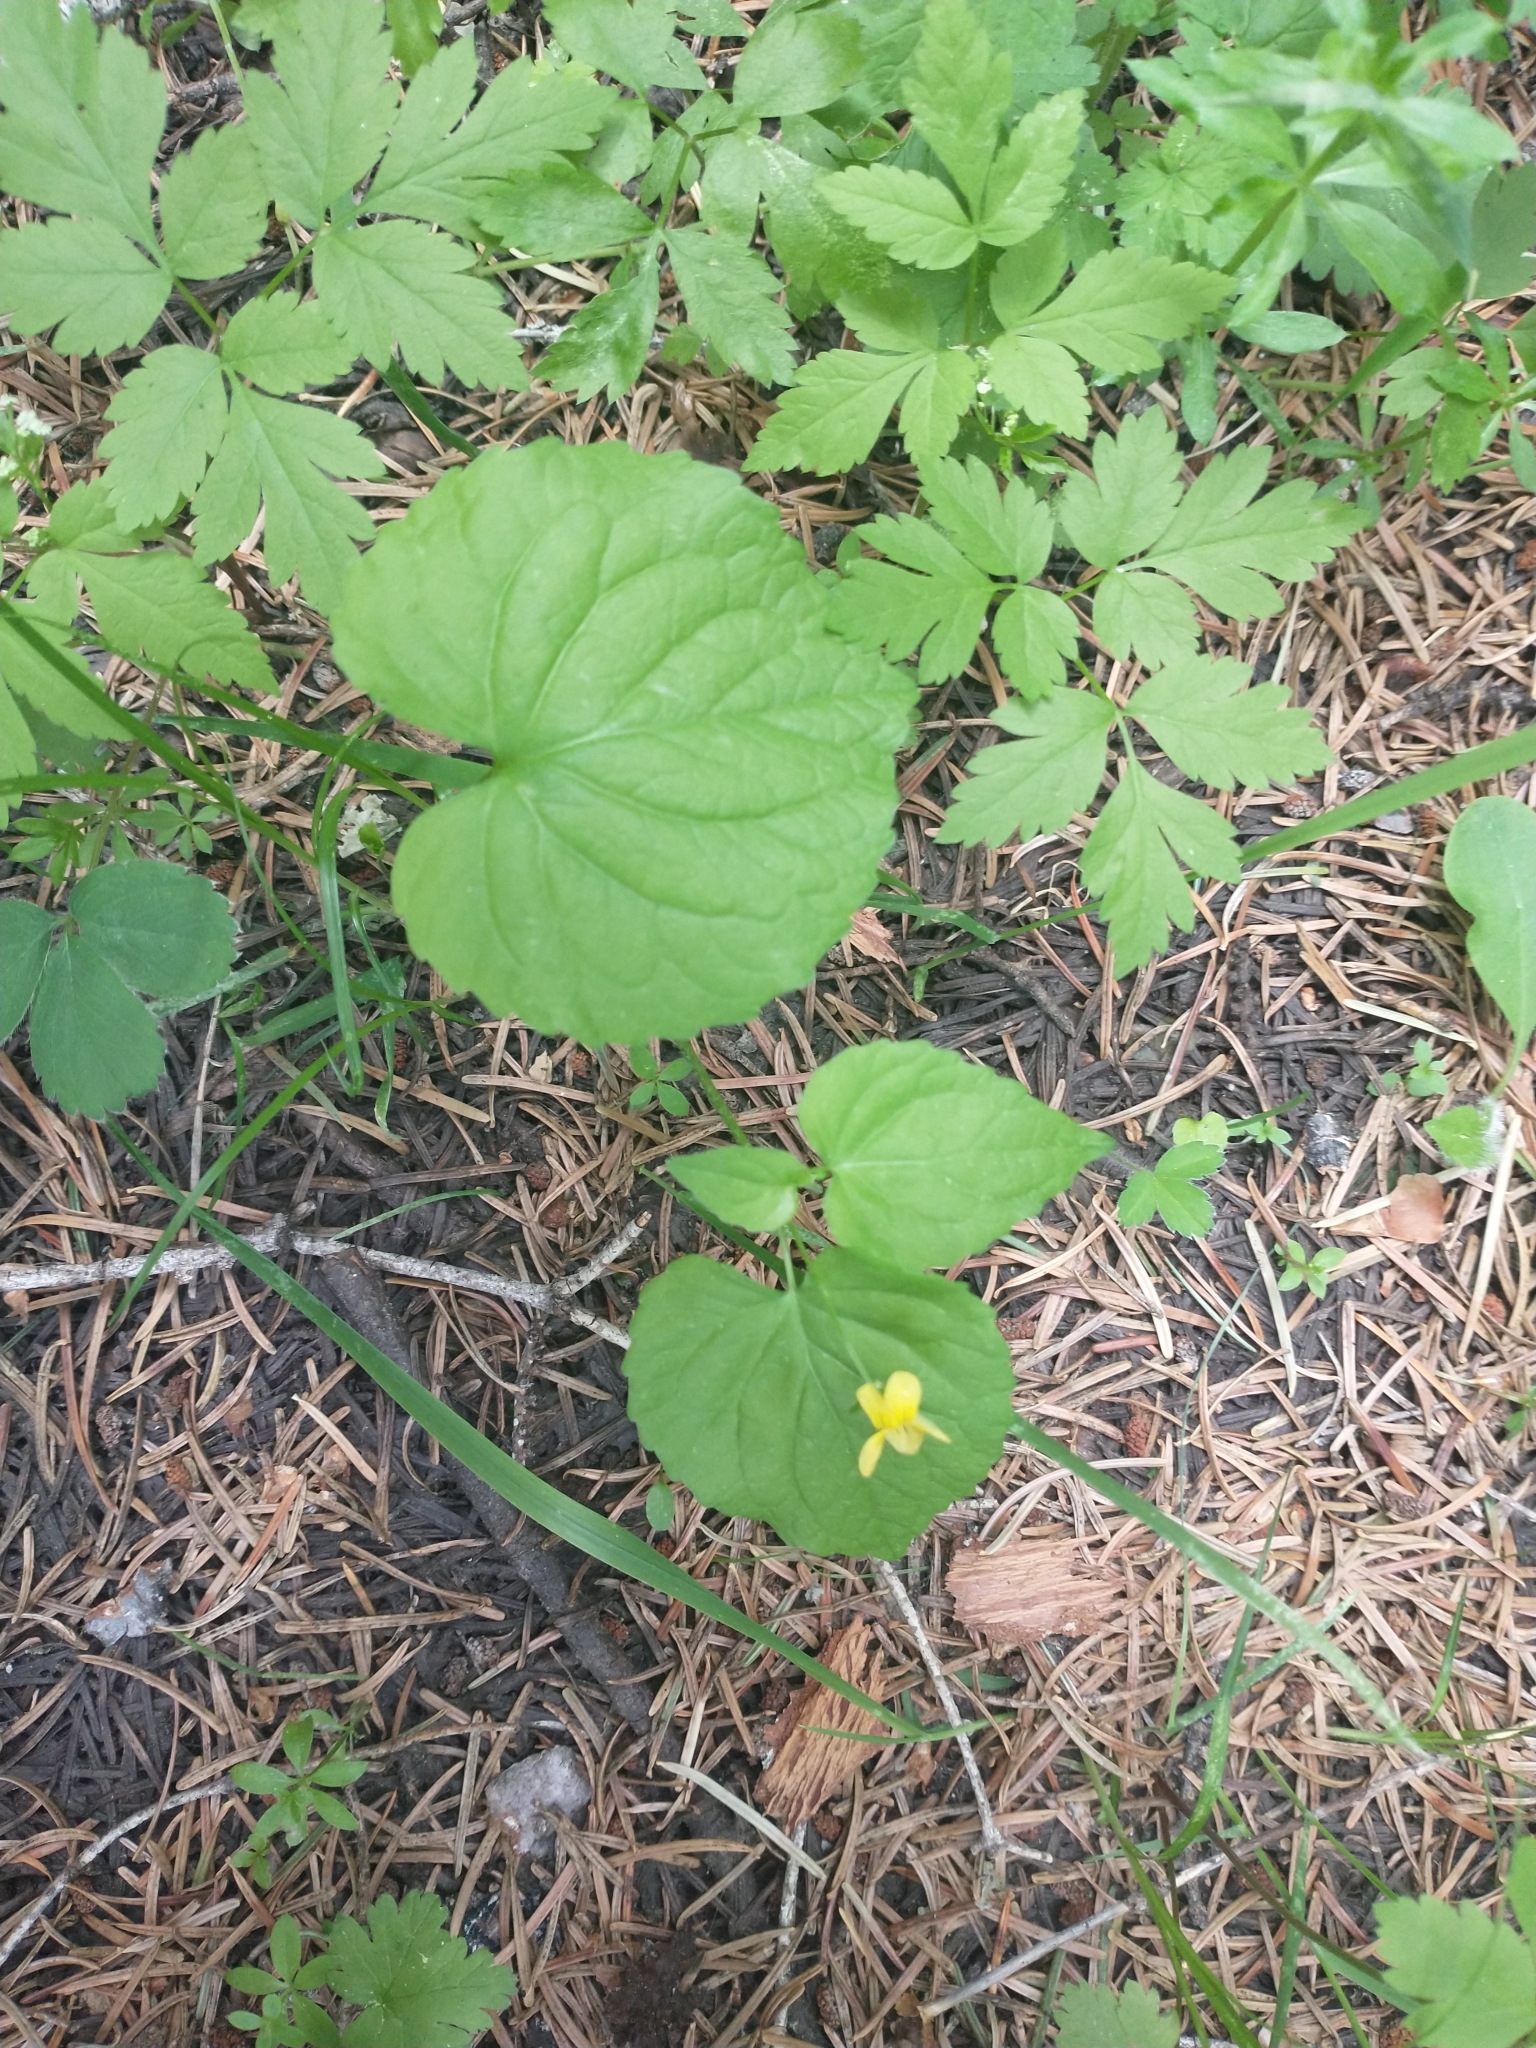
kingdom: Plantae
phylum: Tracheophyta
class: Magnoliopsida
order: Malpighiales
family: Violaceae
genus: Viola
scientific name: Viola glabella
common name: Stream violet
